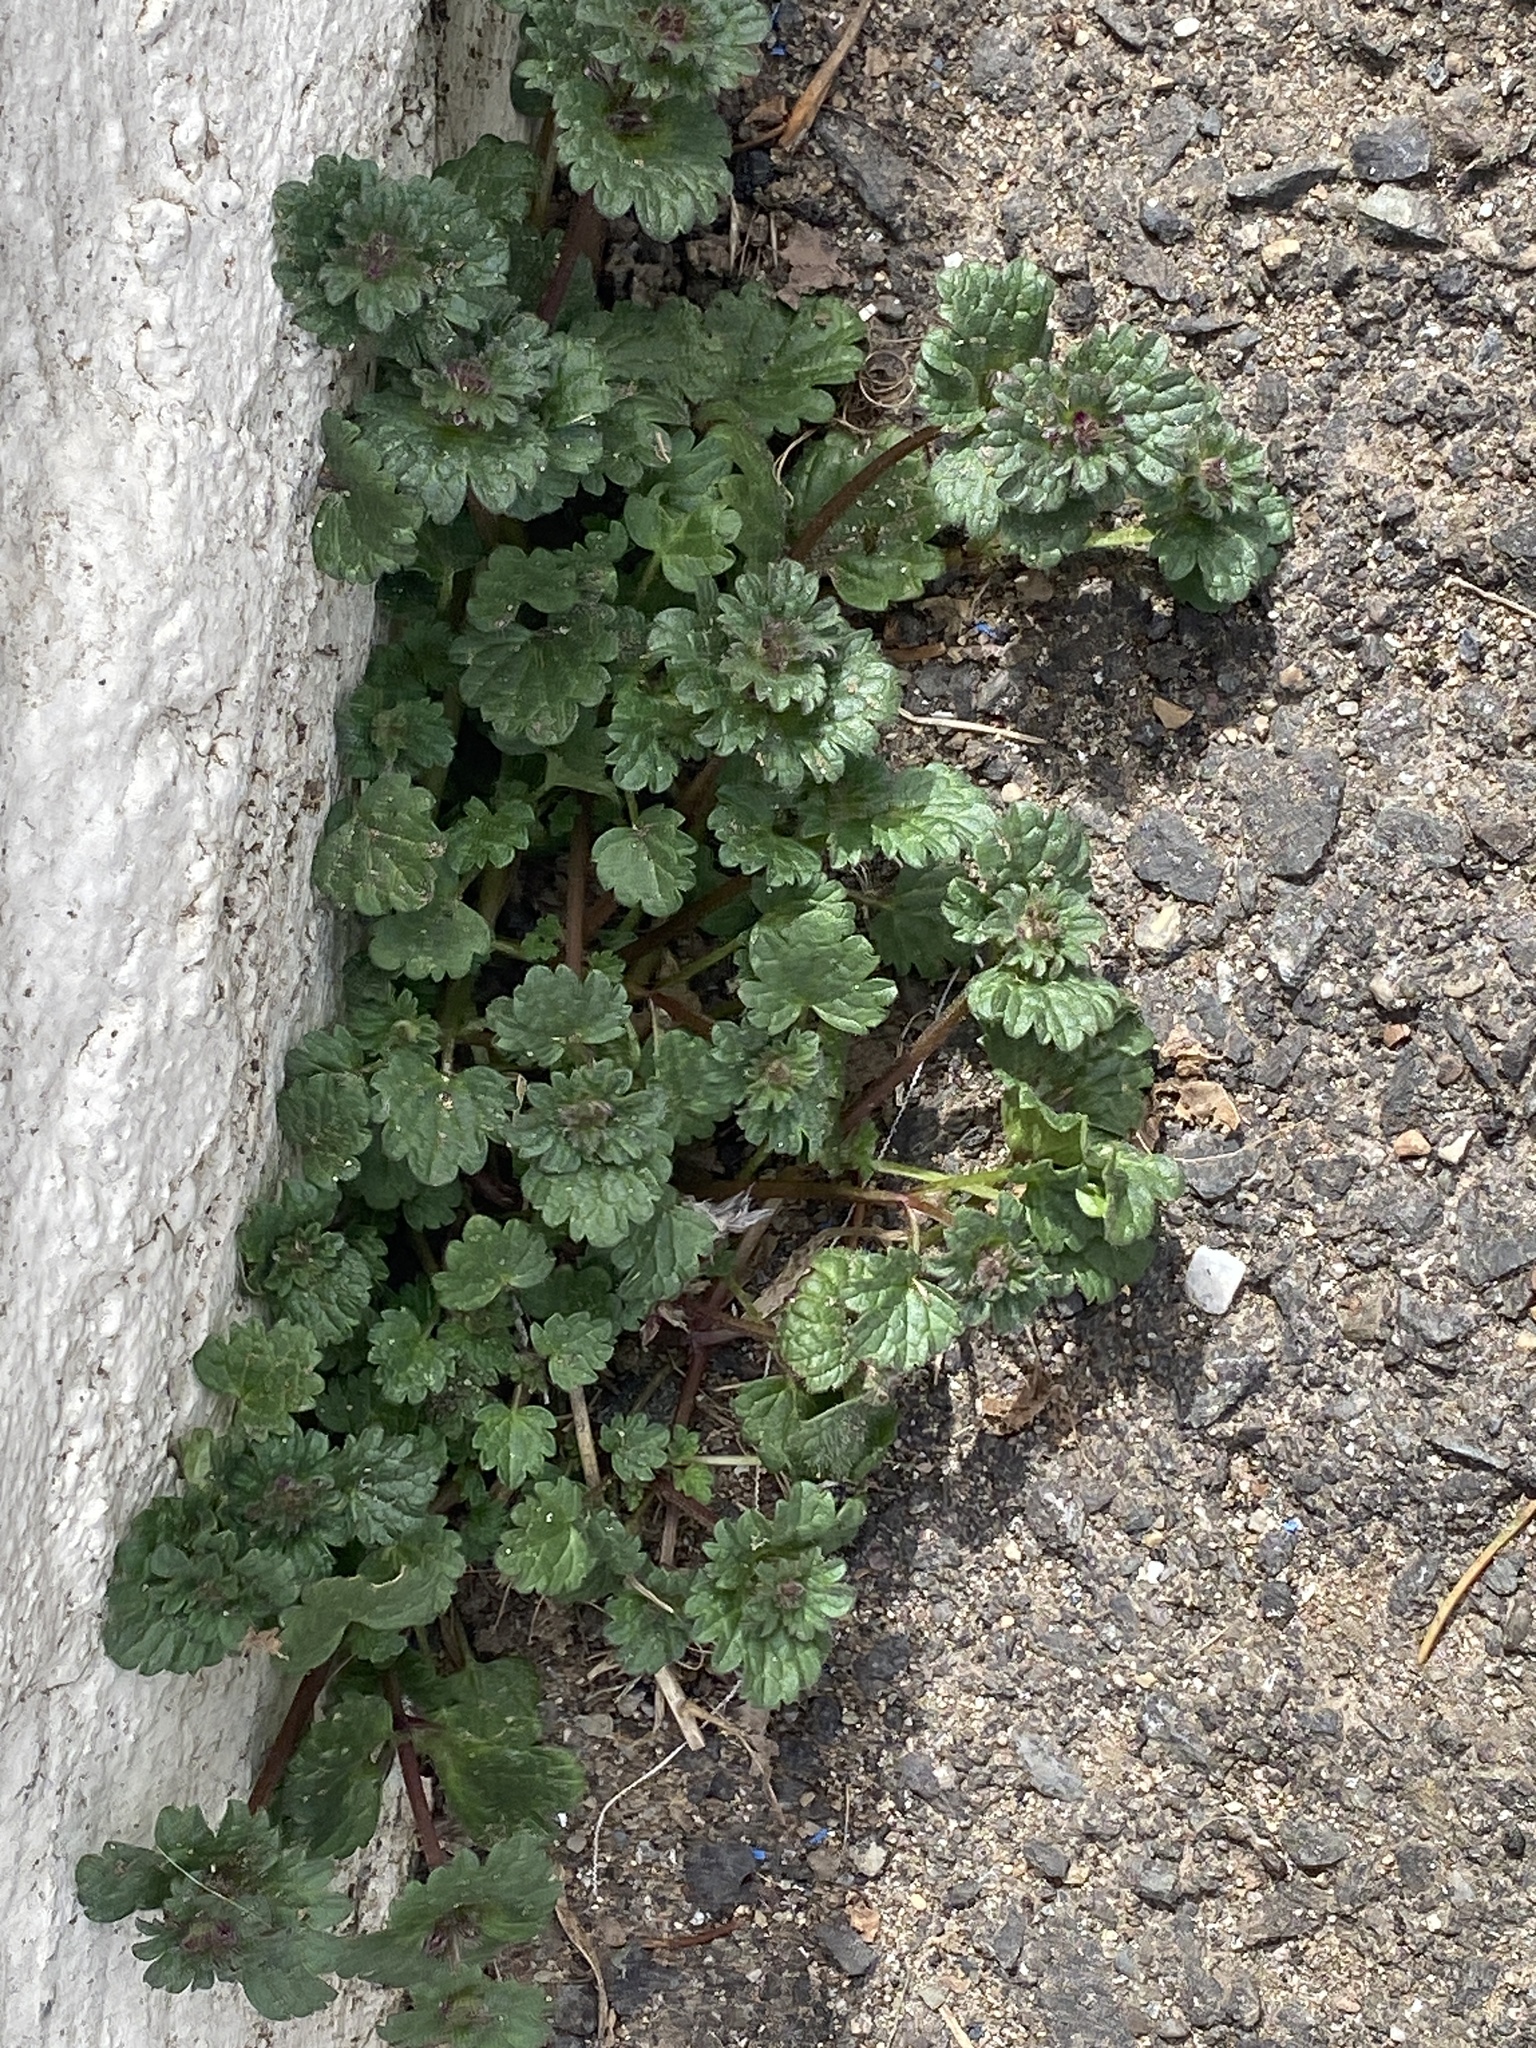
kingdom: Plantae
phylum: Tracheophyta
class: Magnoliopsida
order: Lamiales
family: Lamiaceae
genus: Lamium
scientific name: Lamium amplexicaule
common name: Henbit dead-nettle
